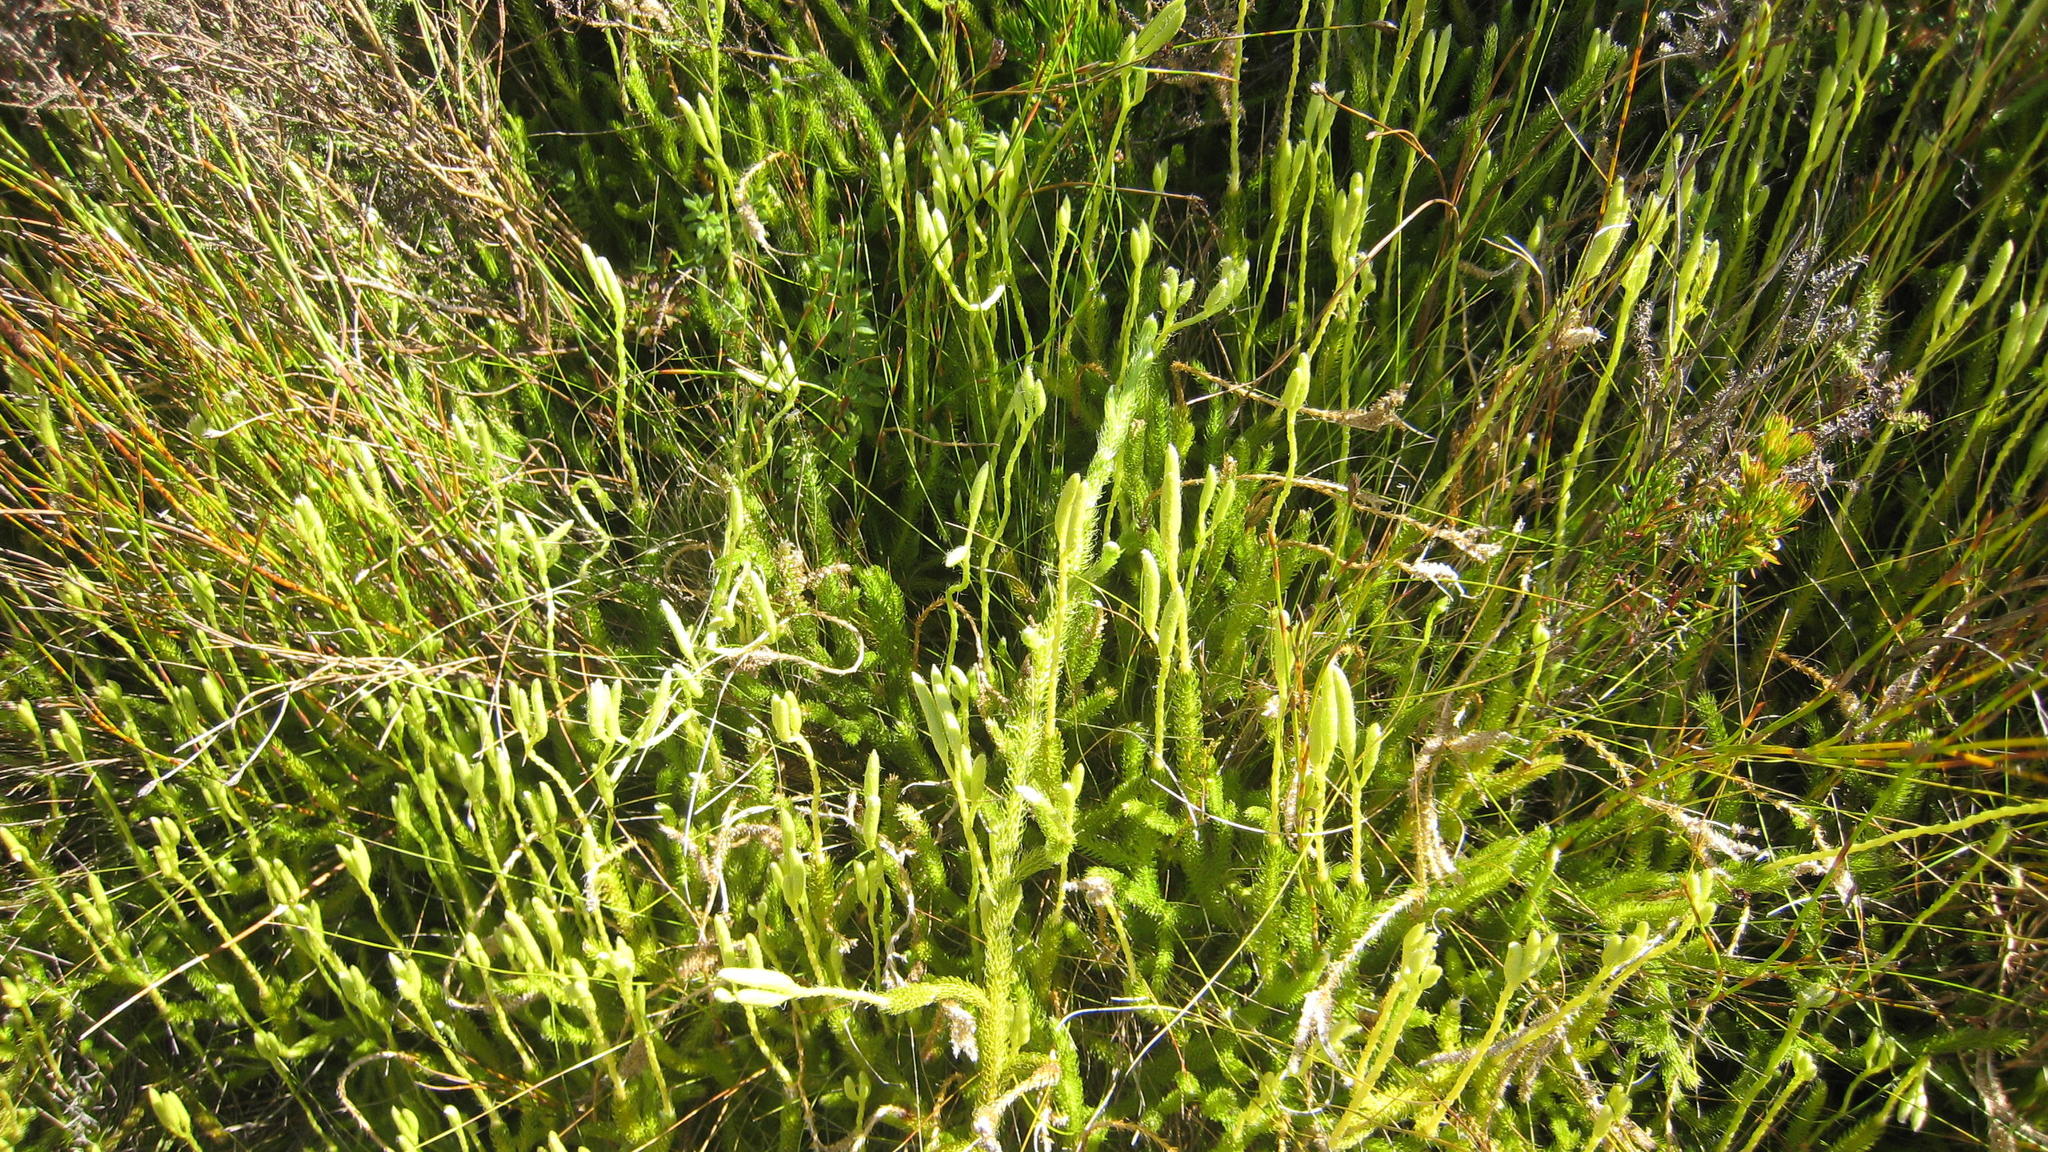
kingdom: Plantae
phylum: Tracheophyta
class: Lycopodiopsida
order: Lycopodiales
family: Lycopodiaceae
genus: Lycopodium
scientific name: Lycopodium clavatum
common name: Stag's-horn clubmoss
